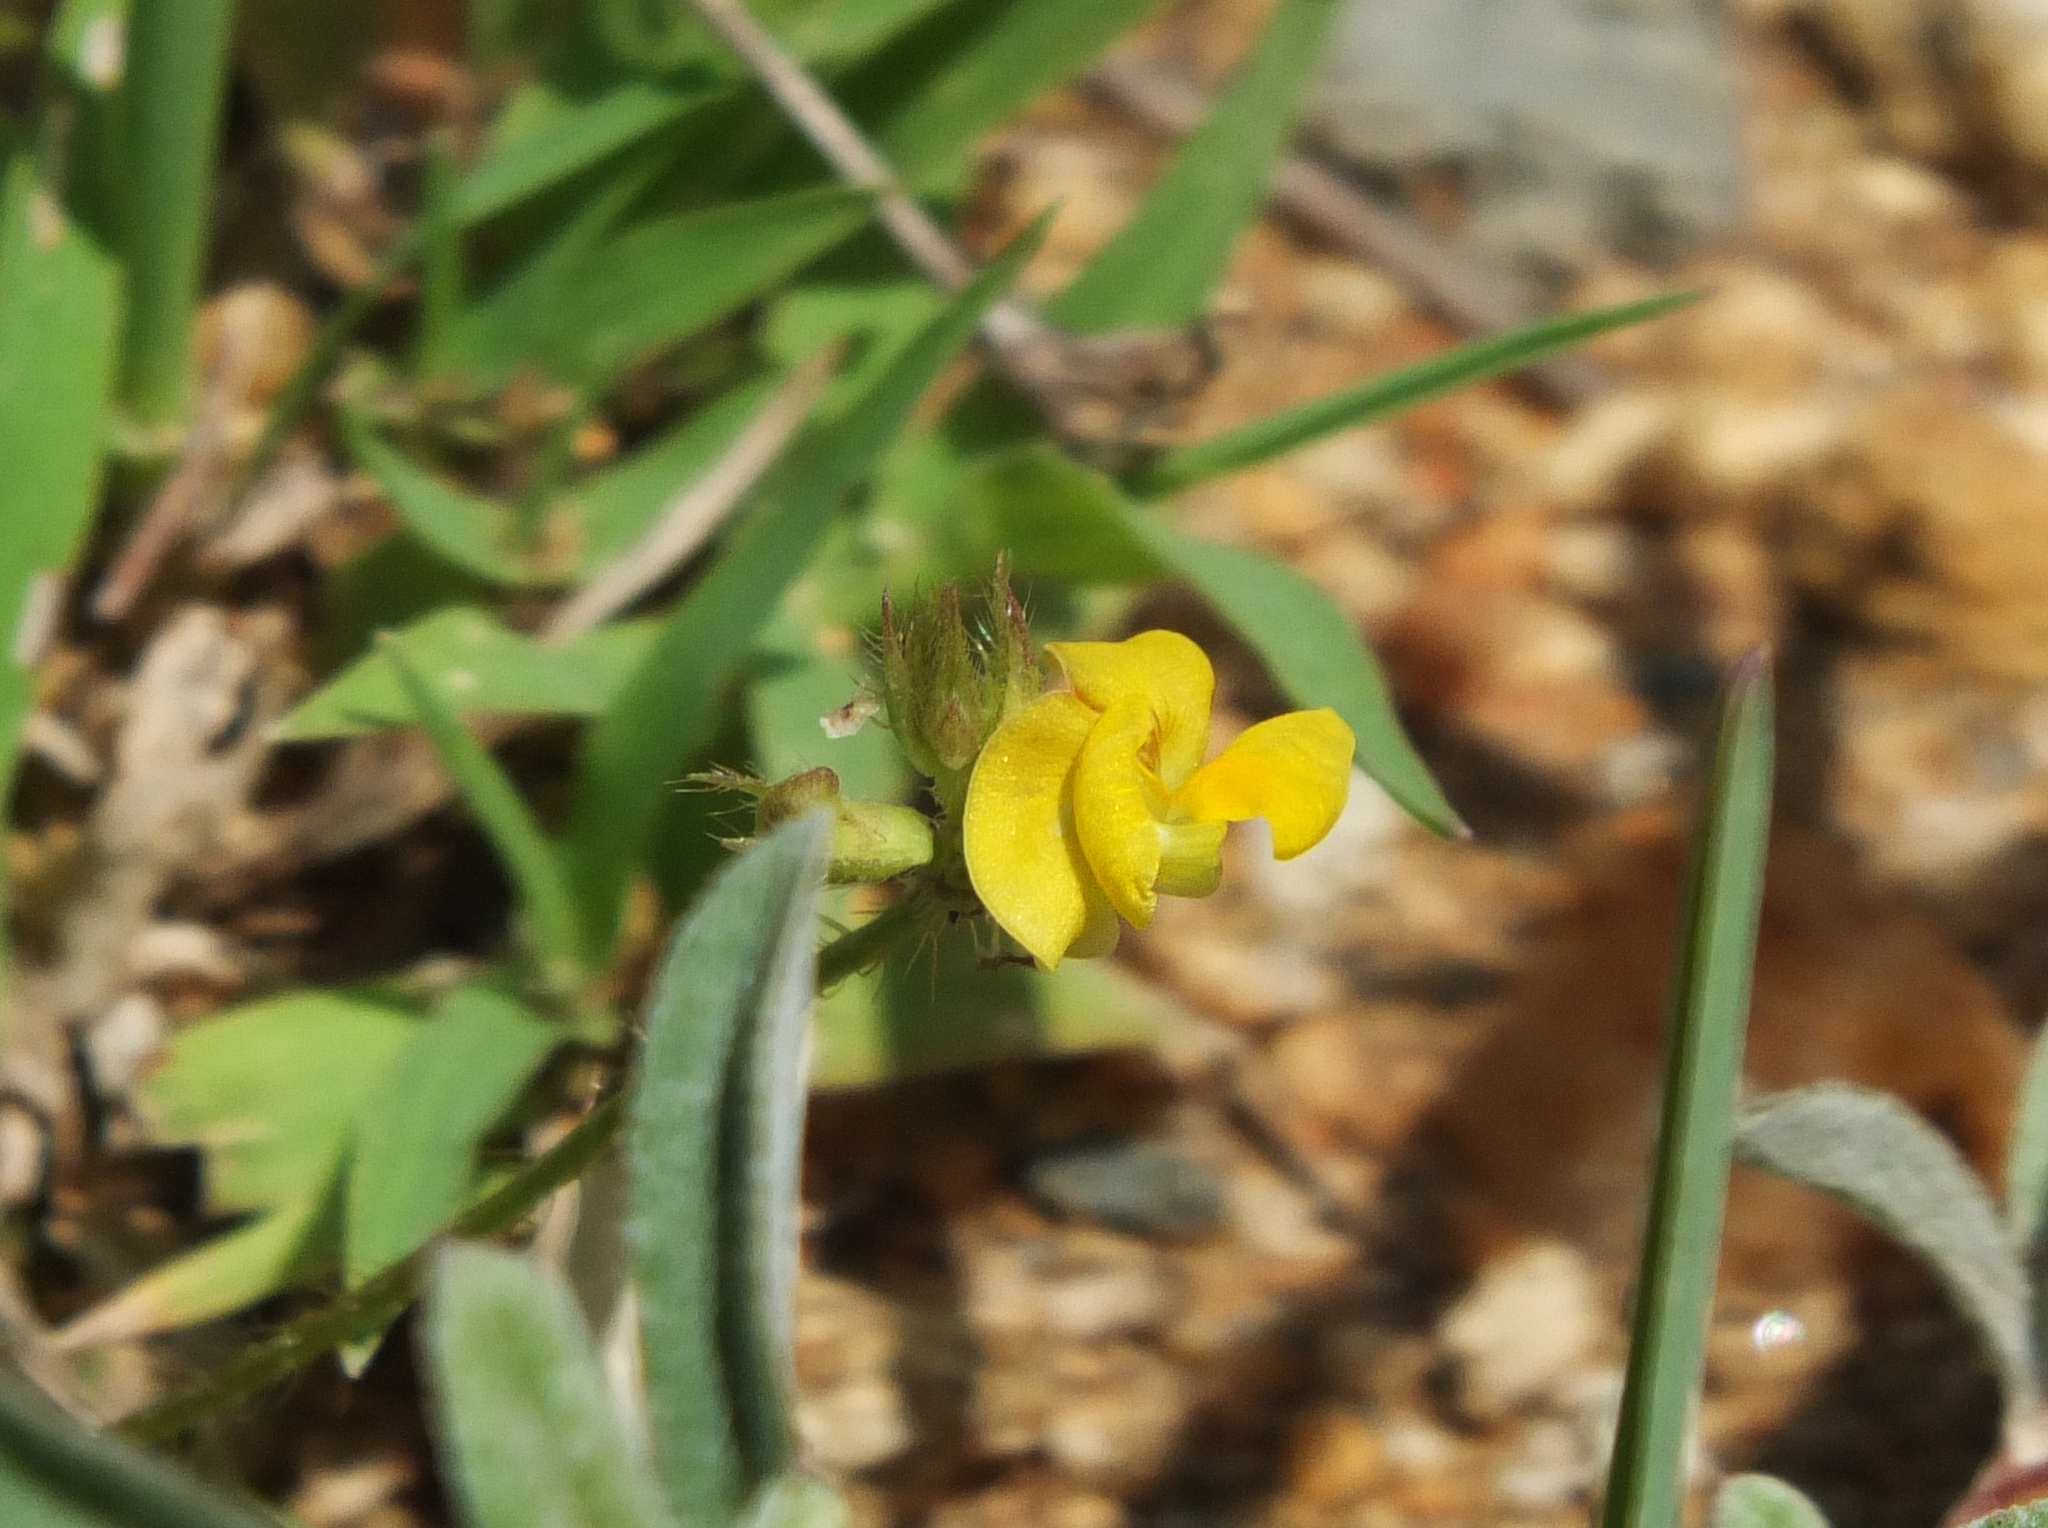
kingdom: Plantae
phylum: Tracheophyta
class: Magnoliopsida
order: Fabales
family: Fabaceae
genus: Vigna
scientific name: Vigna aconitifolia
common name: Dew bean
